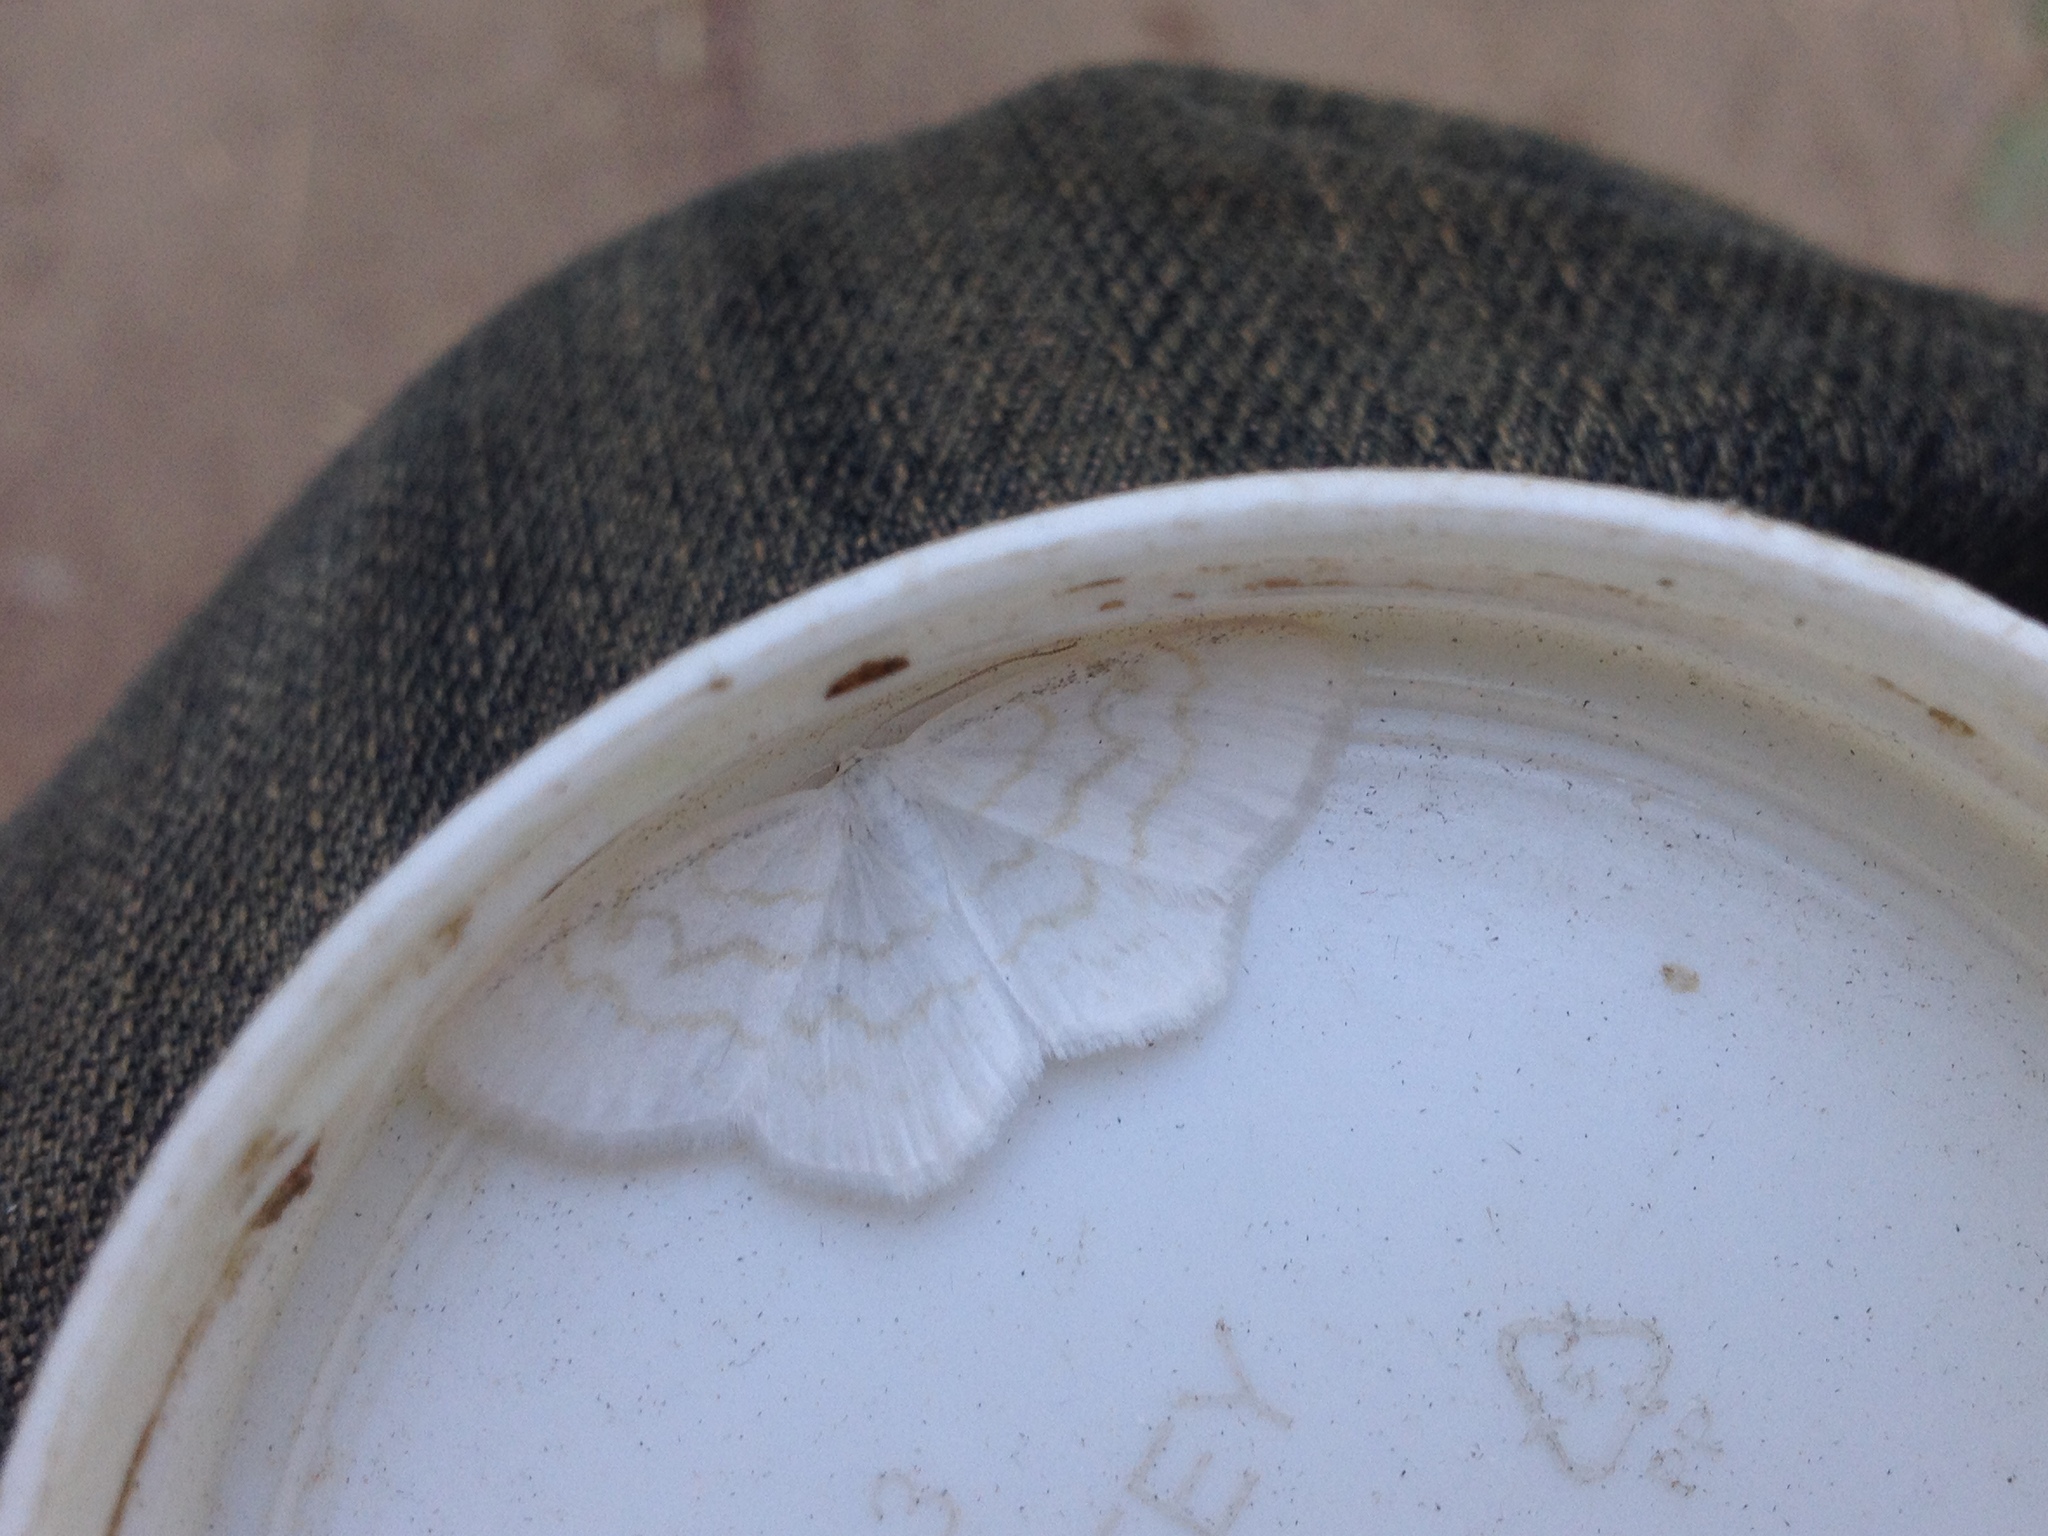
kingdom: Animalia
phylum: Arthropoda
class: Insecta
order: Lepidoptera
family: Geometridae
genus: Scopula
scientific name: Scopula nemoraria
